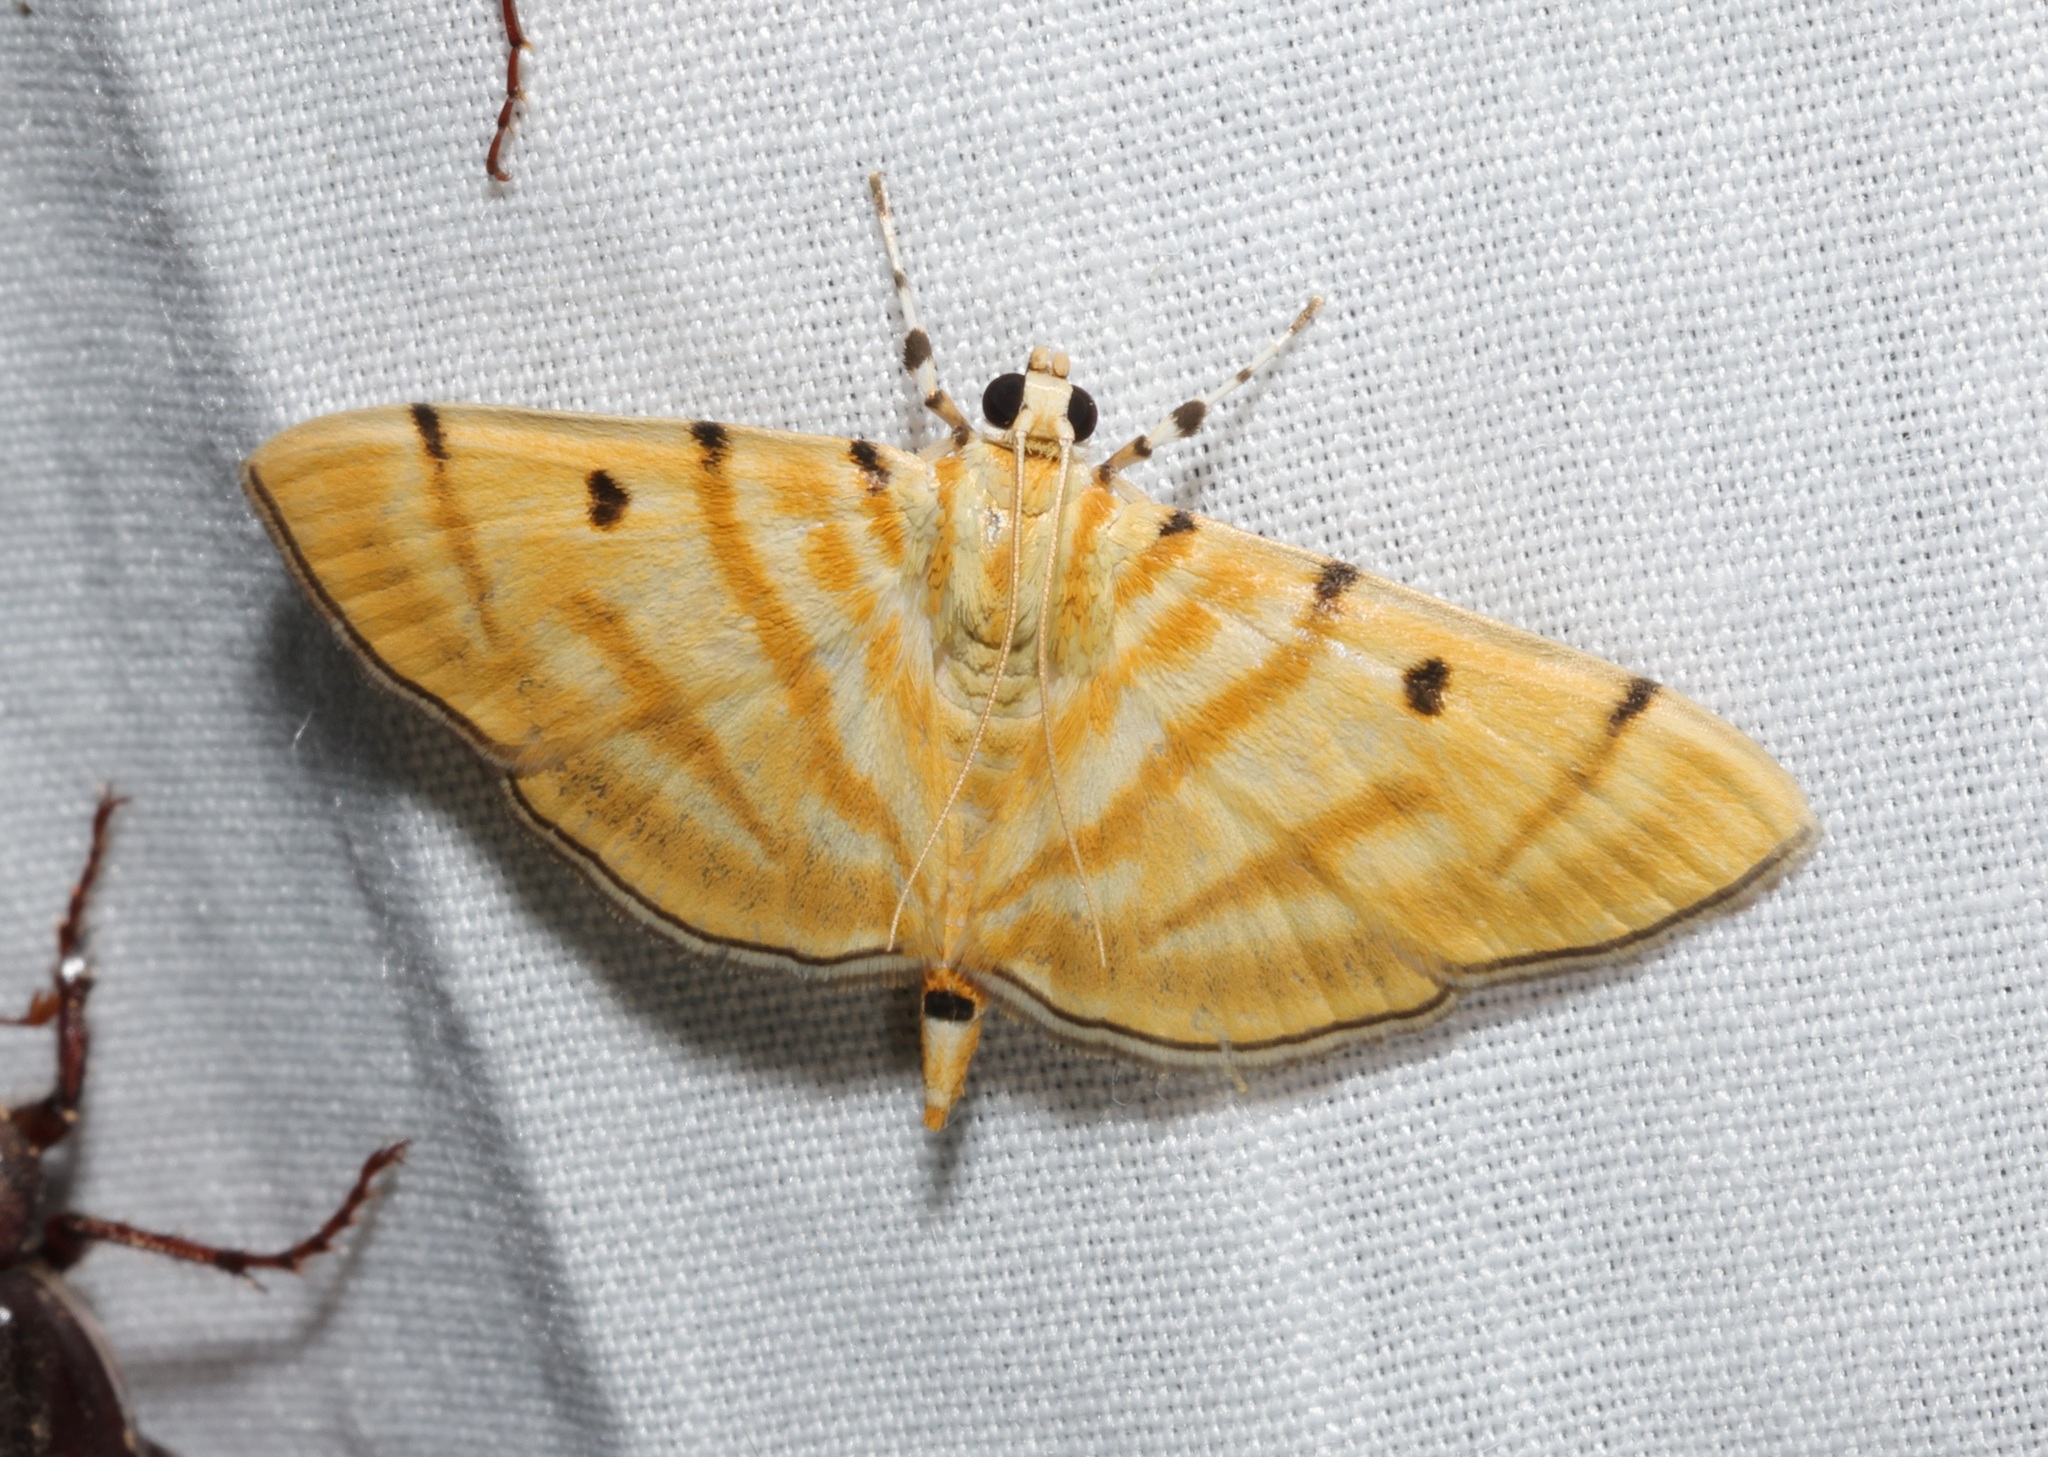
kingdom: Animalia
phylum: Arthropoda
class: Insecta
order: Lepidoptera
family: Crambidae
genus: Orthospila
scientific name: Orthospila orissusalis
